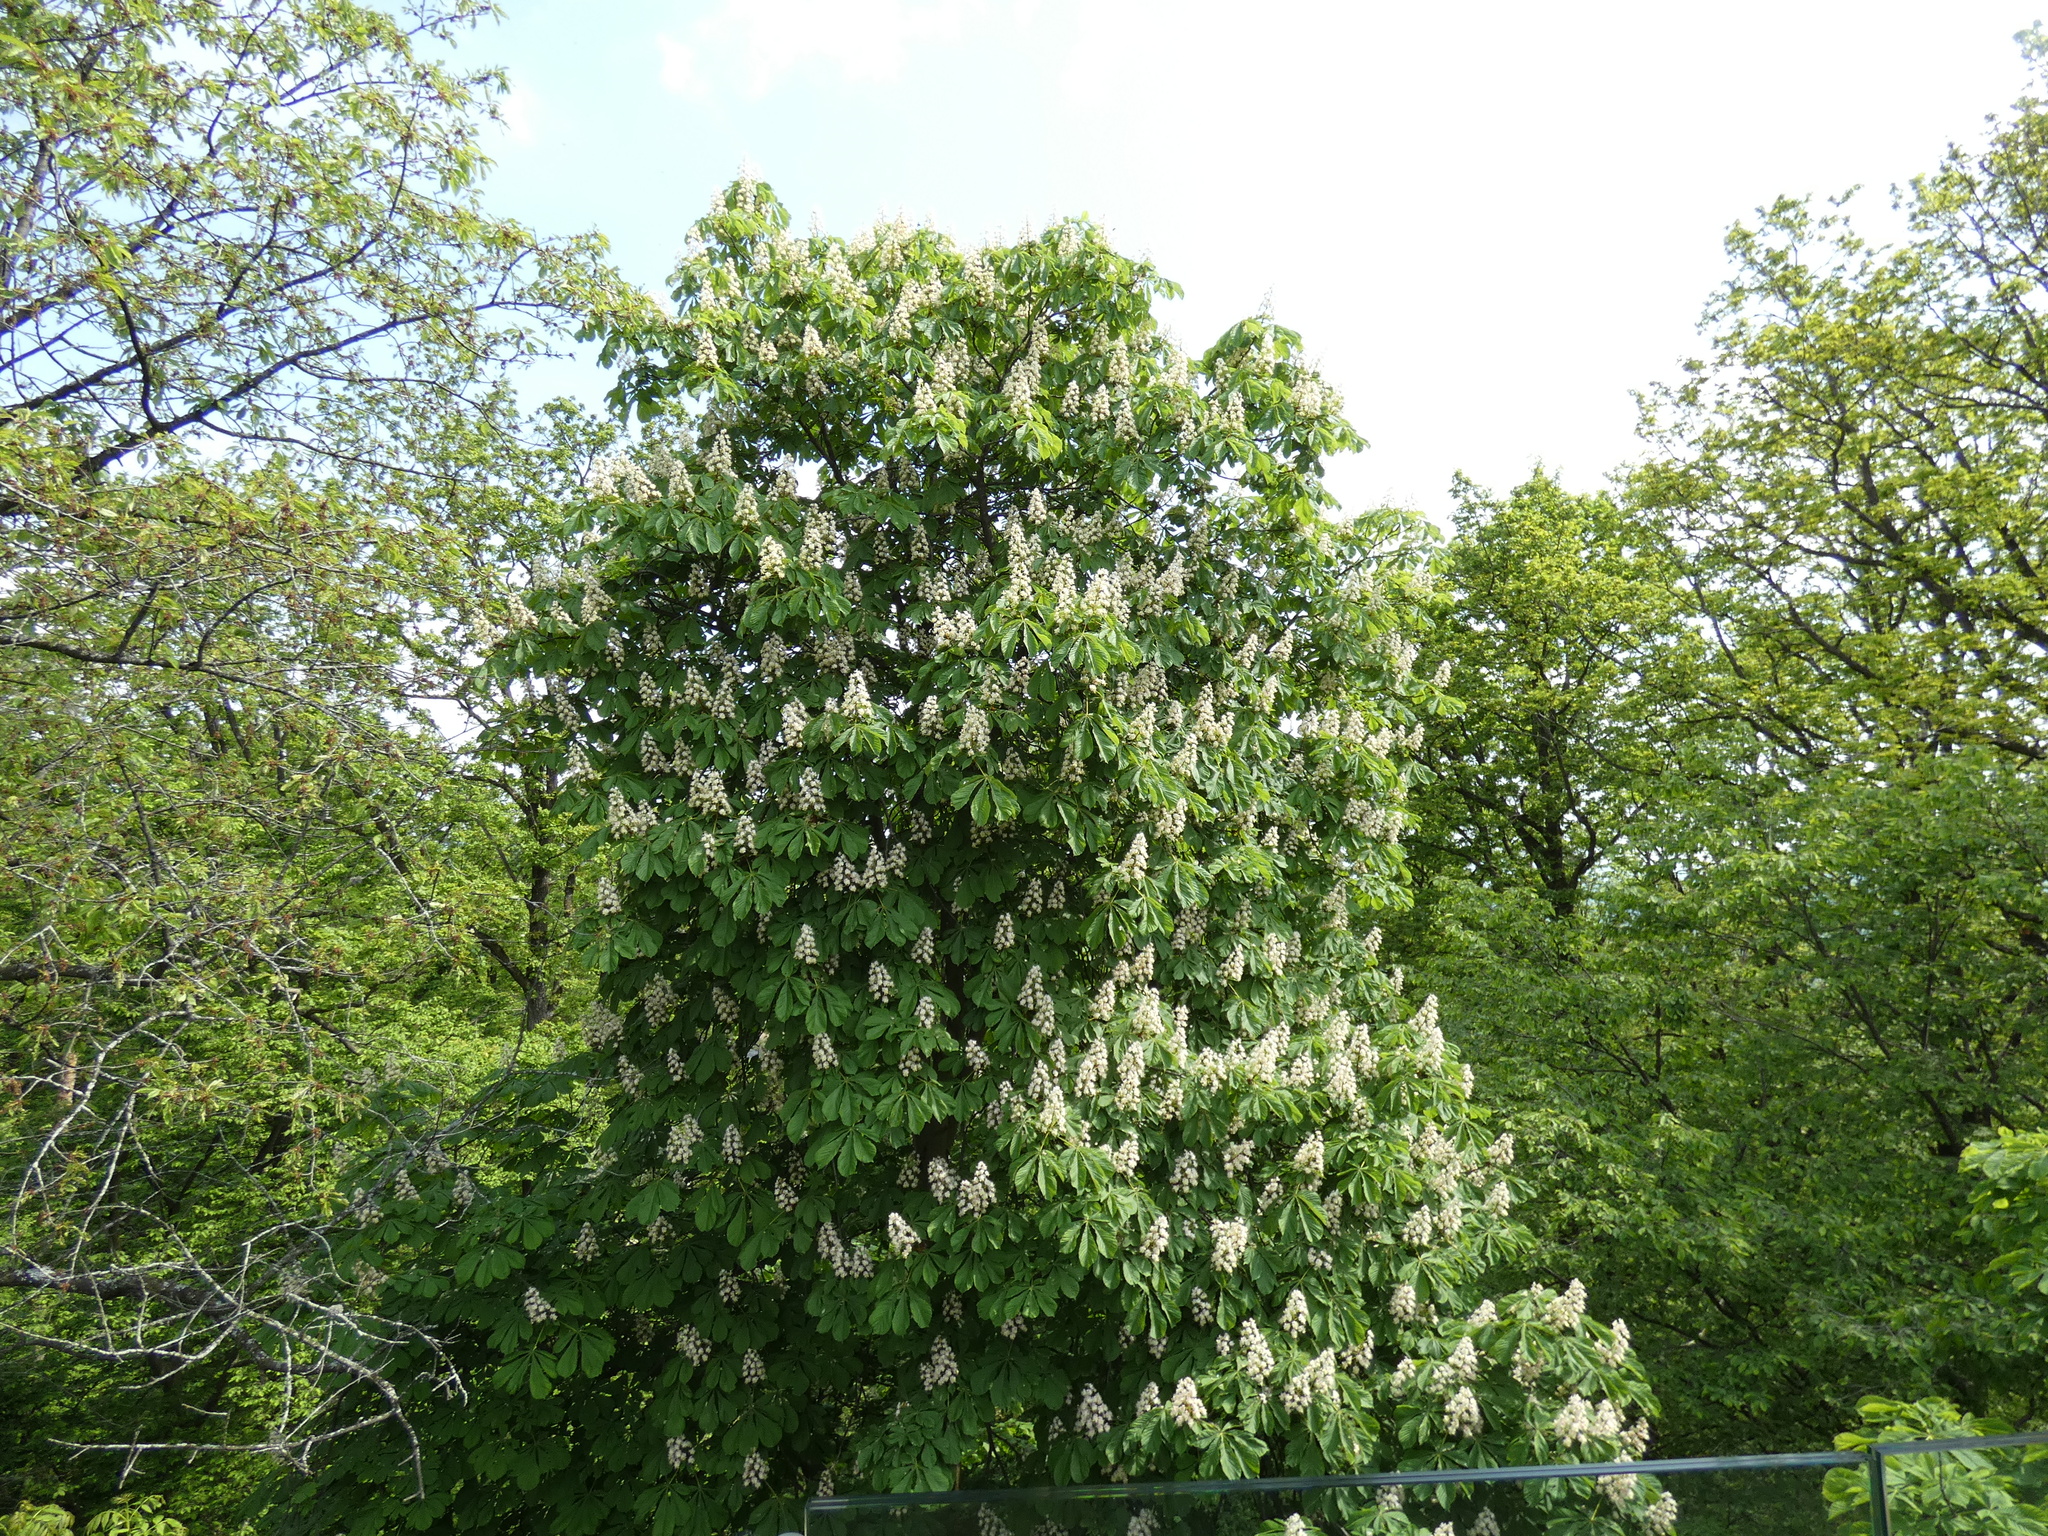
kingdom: Plantae
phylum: Tracheophyta
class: Magnoliopsida
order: Sapindales
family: Sapindaceae
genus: Aesculus
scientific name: Aesculus hippocastanum
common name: Horse-chestnut
